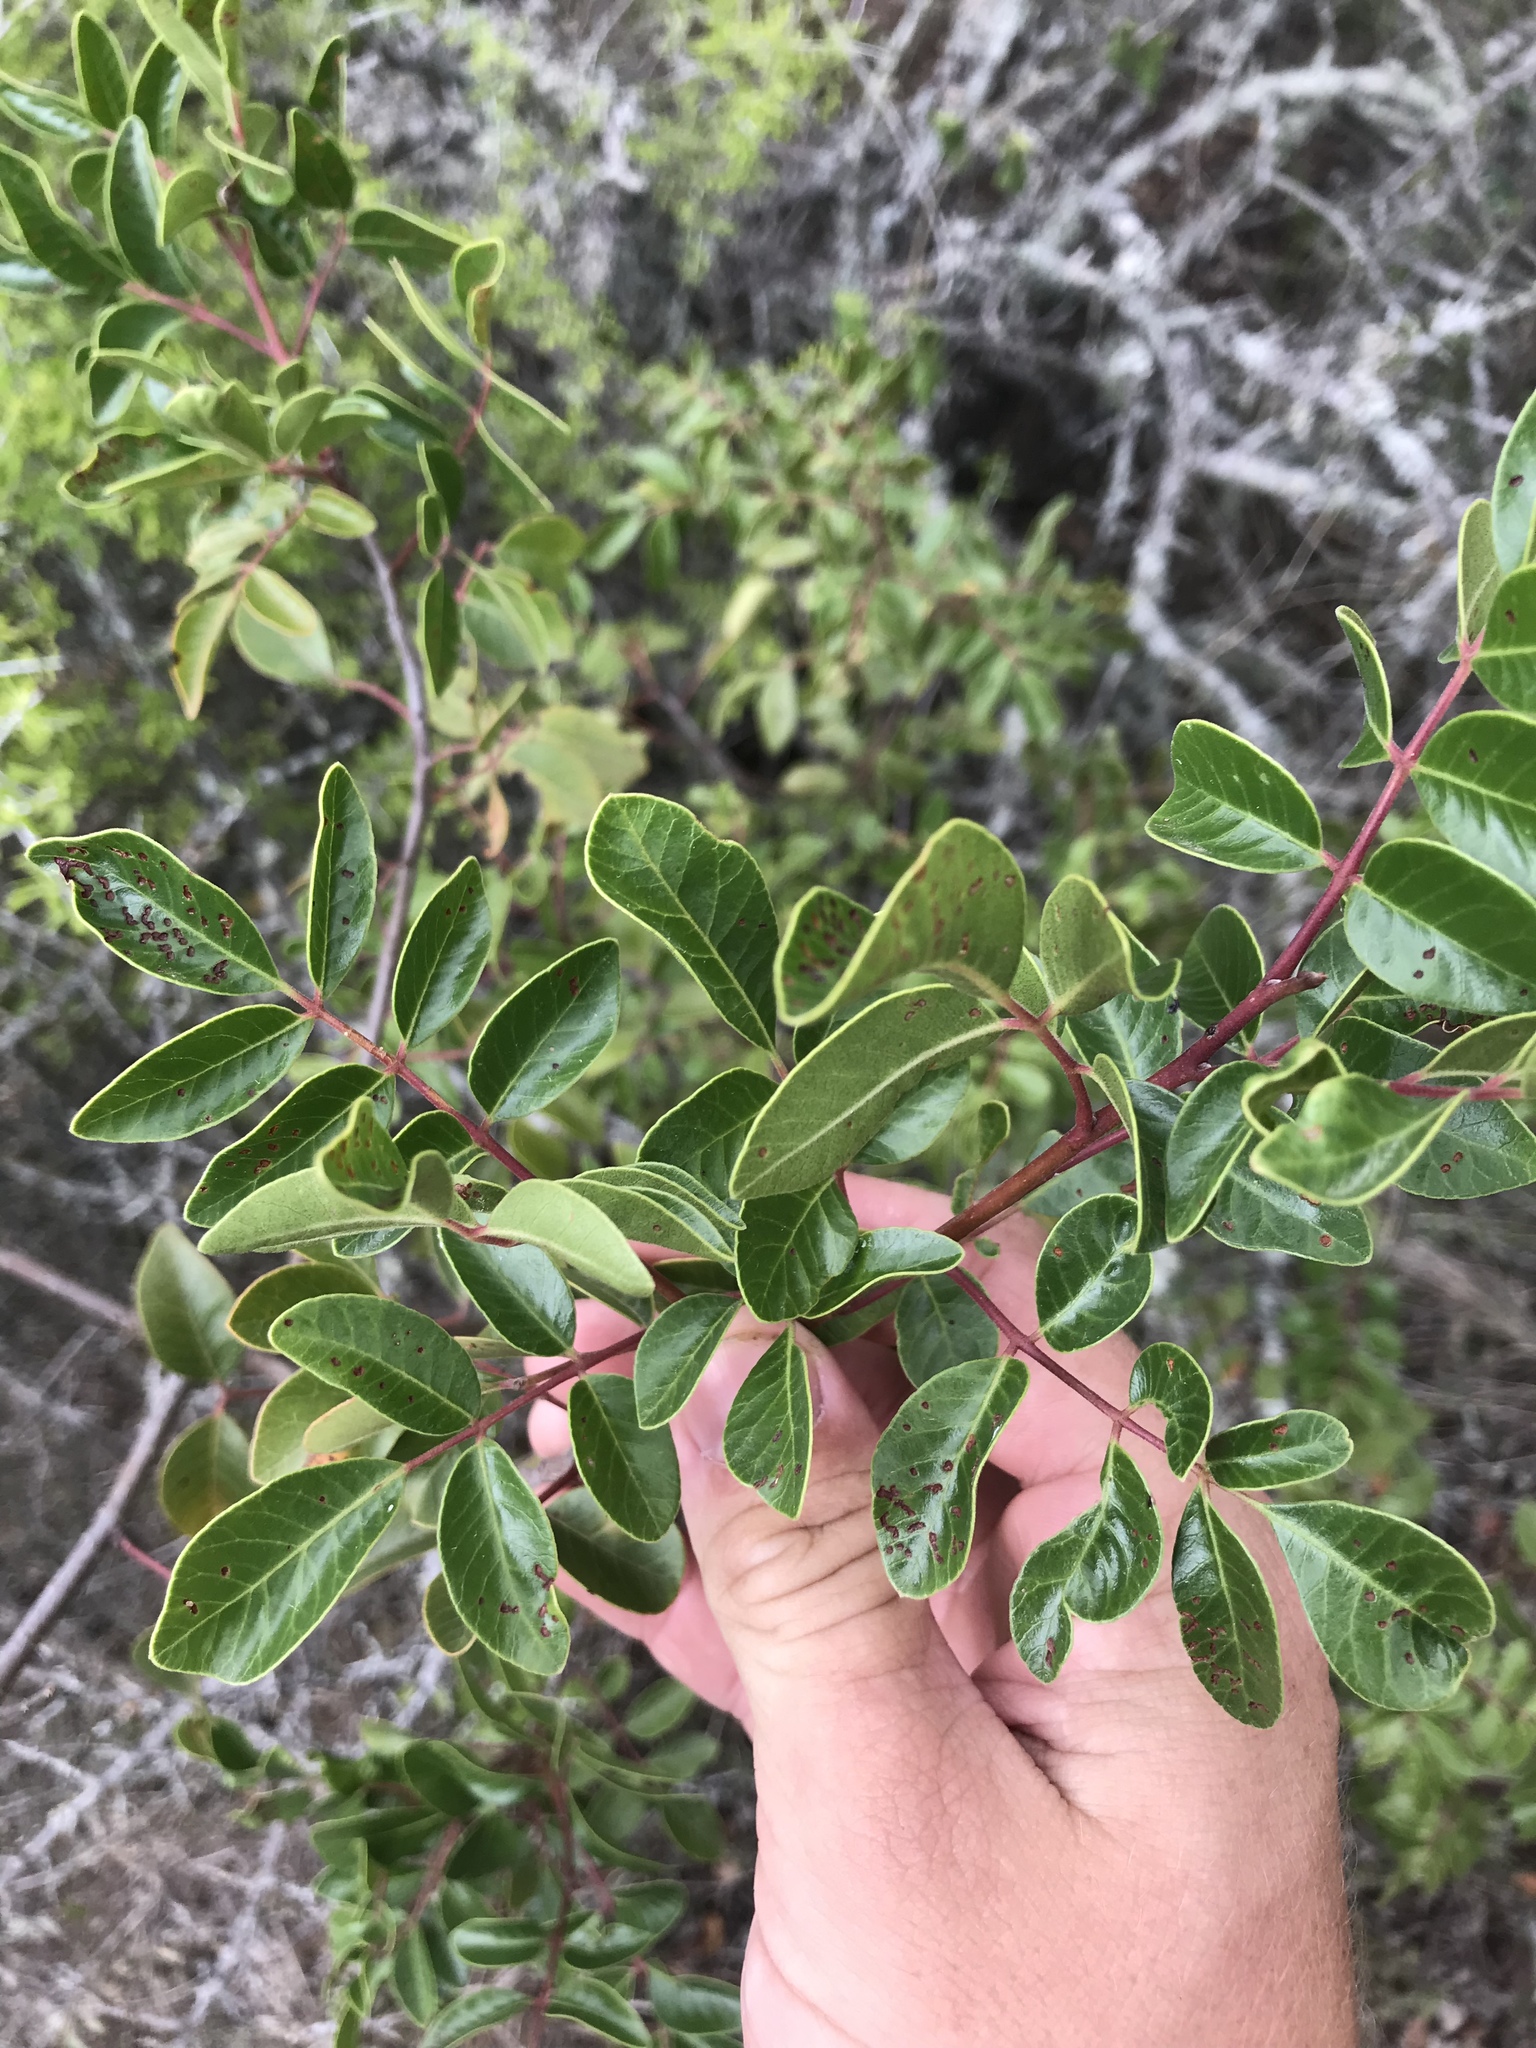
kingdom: Plantae
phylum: Tracheophyta
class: Magnoliopsida
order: Sapindales
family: Anacardiaceae
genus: Rhus
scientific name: Rhus virens
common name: Evergreen sumac
